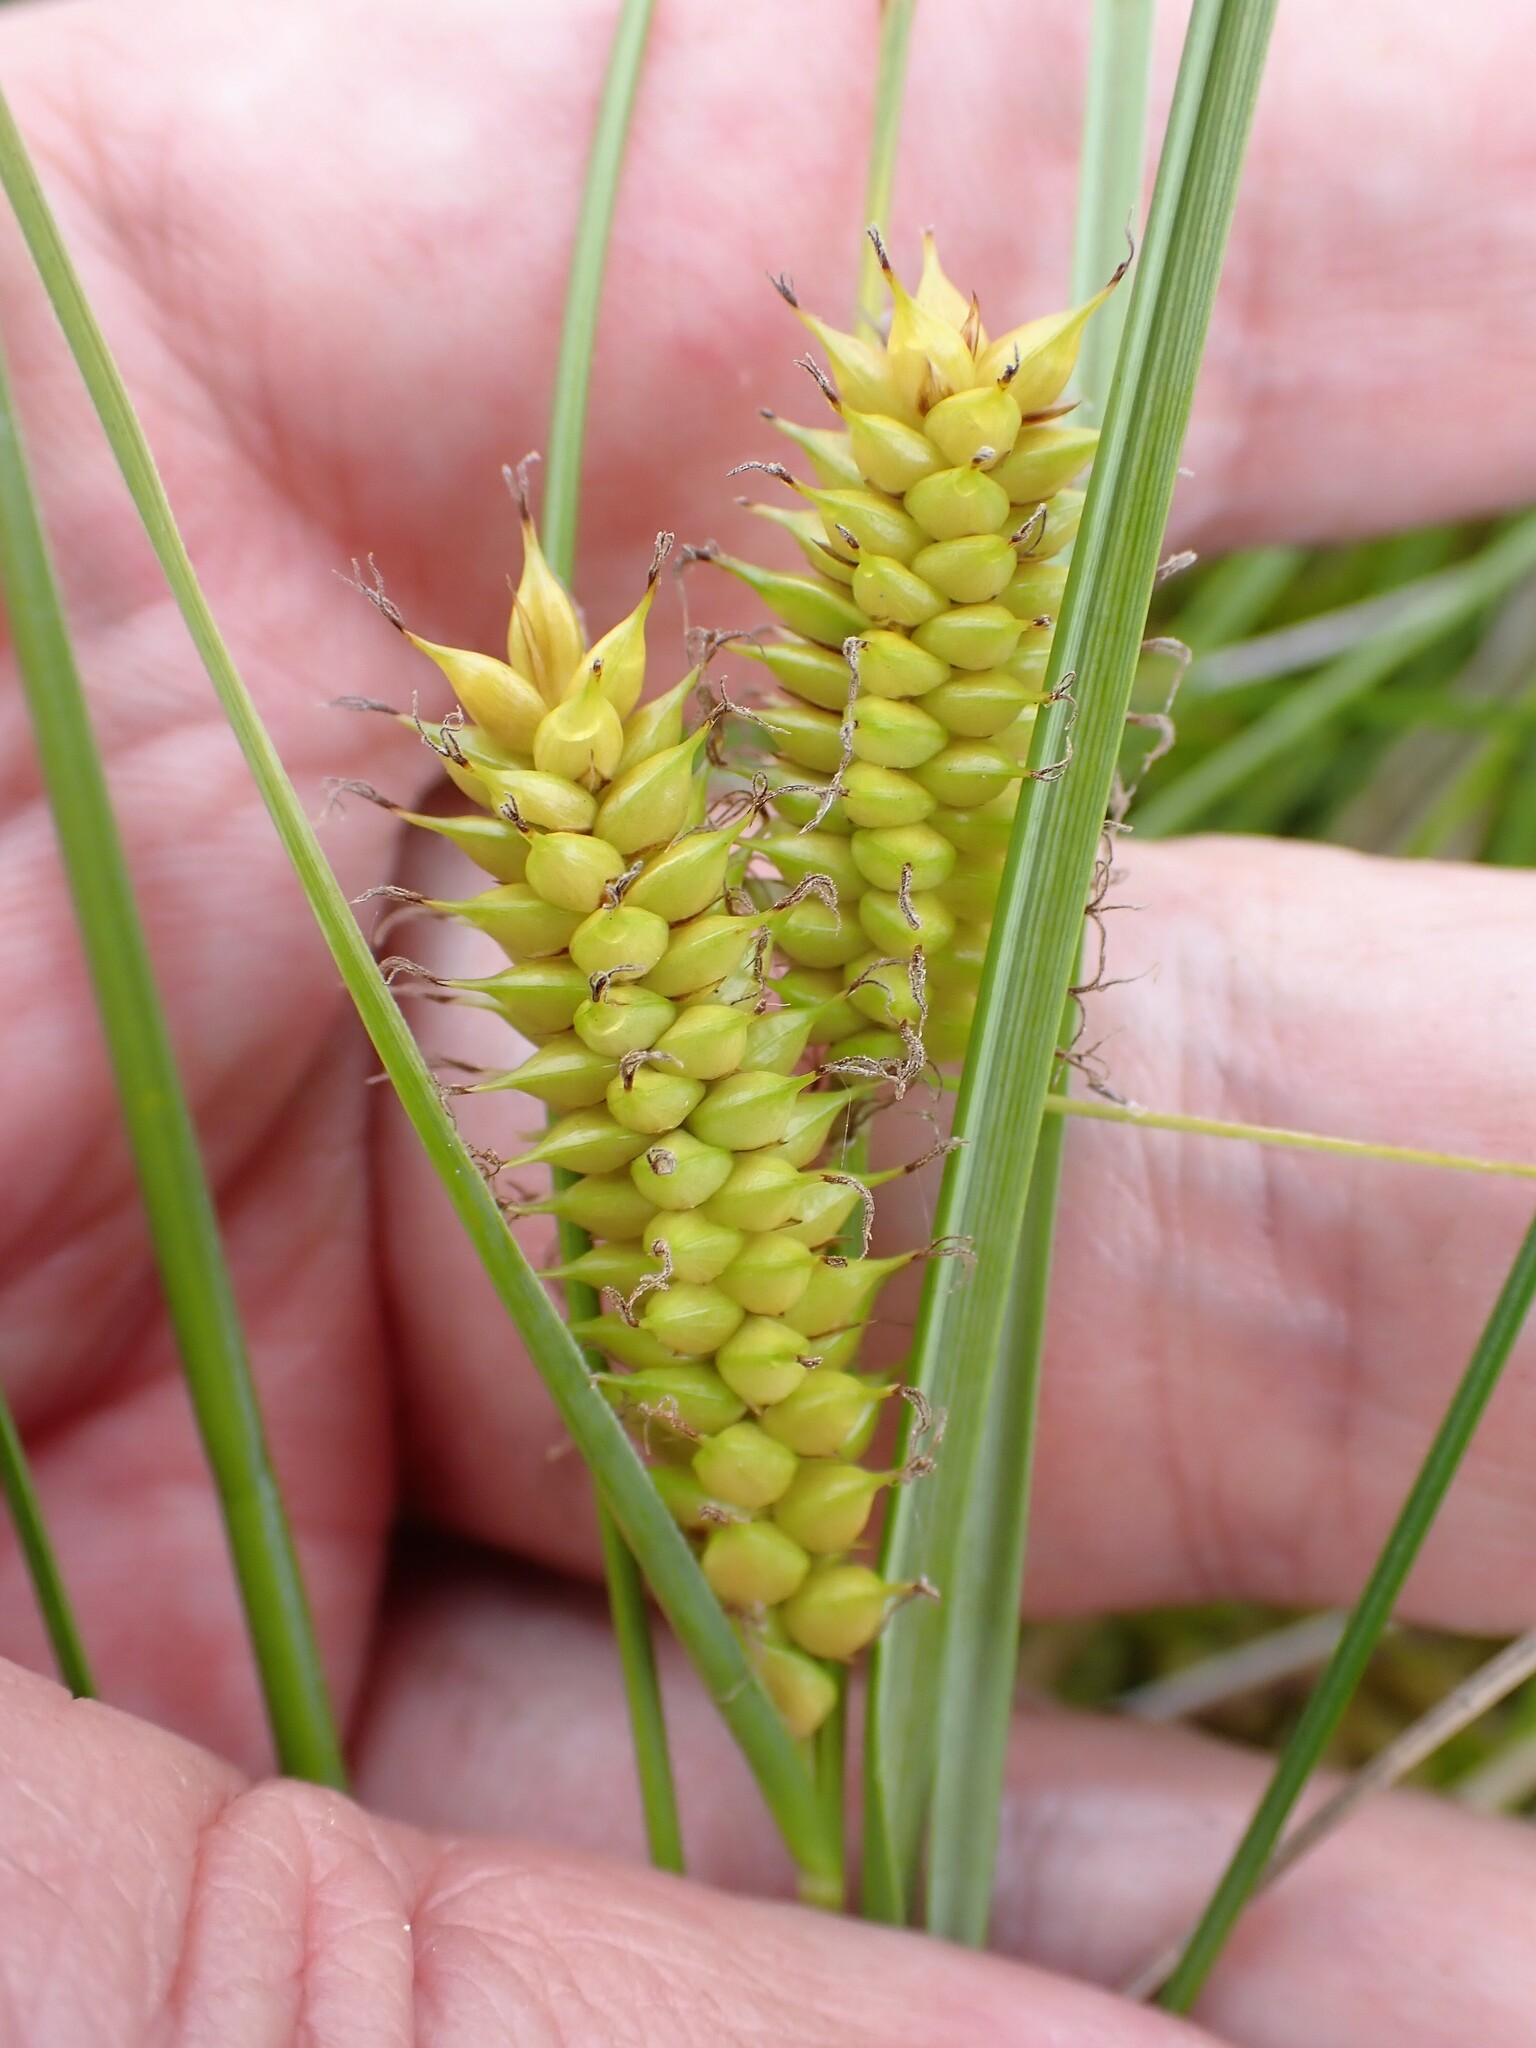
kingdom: Plantae
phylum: Tracheophyta
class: Liliopsida
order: Poales
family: Cyperaceae
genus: Carex
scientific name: Carex rostrata
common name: Bottle sedge
